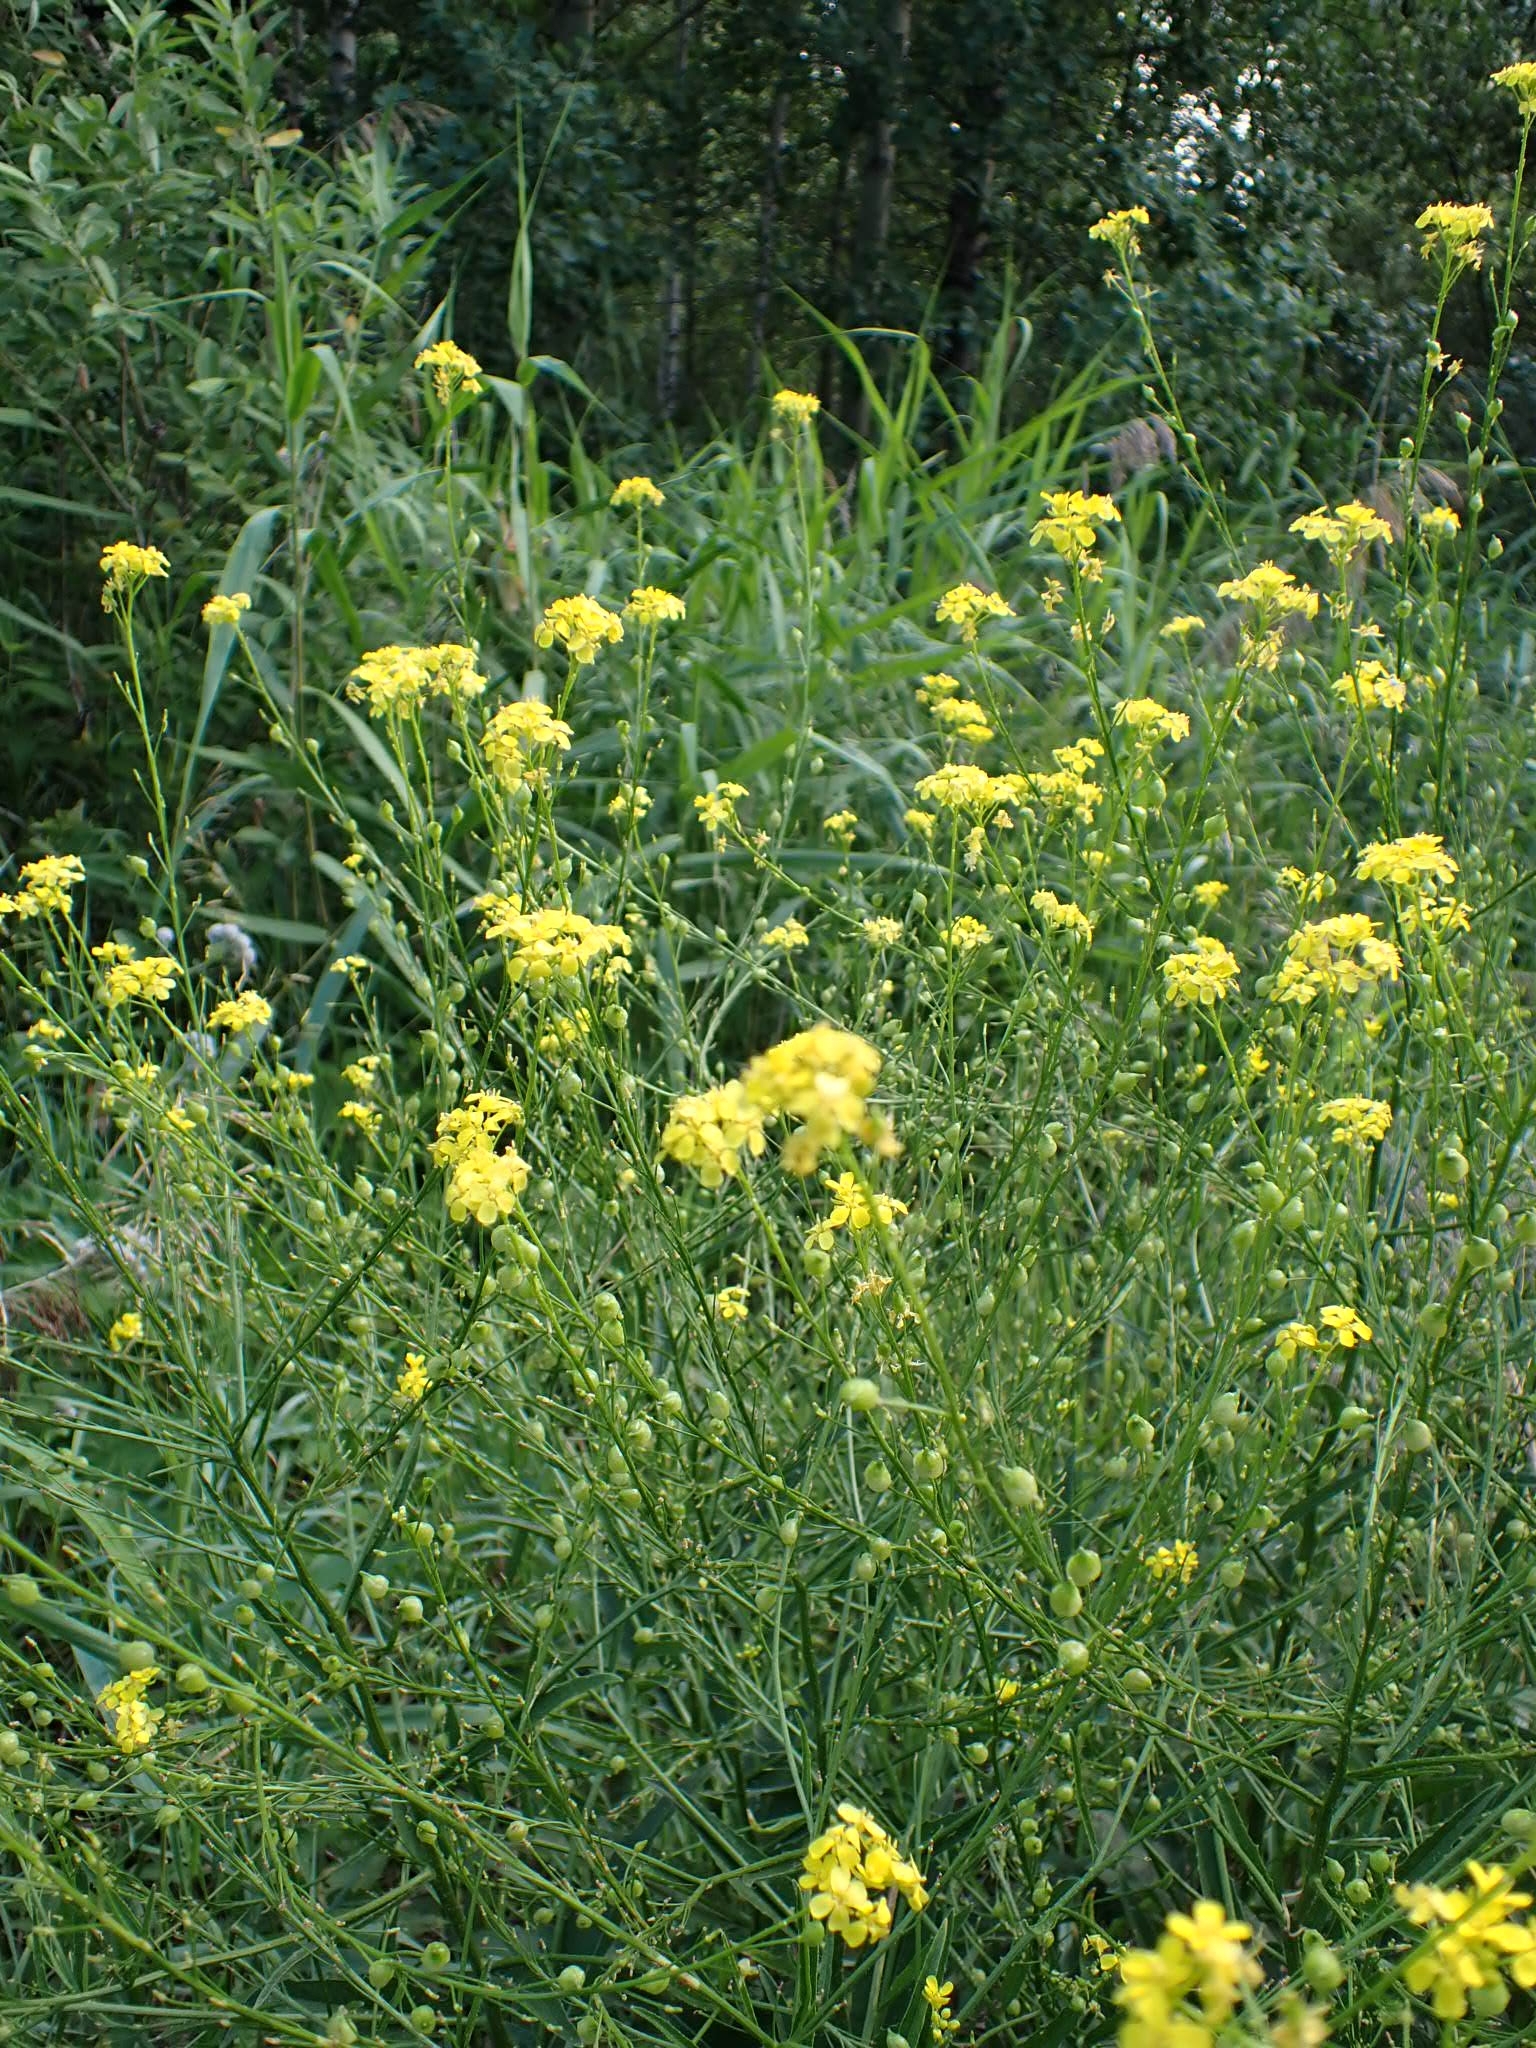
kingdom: Plantae
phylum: Tracheophyta
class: Magnoliopsida
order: Brassicales
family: Brassicaceae
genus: Bunias
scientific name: Bunias orientalis
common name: Warty-cabbage
